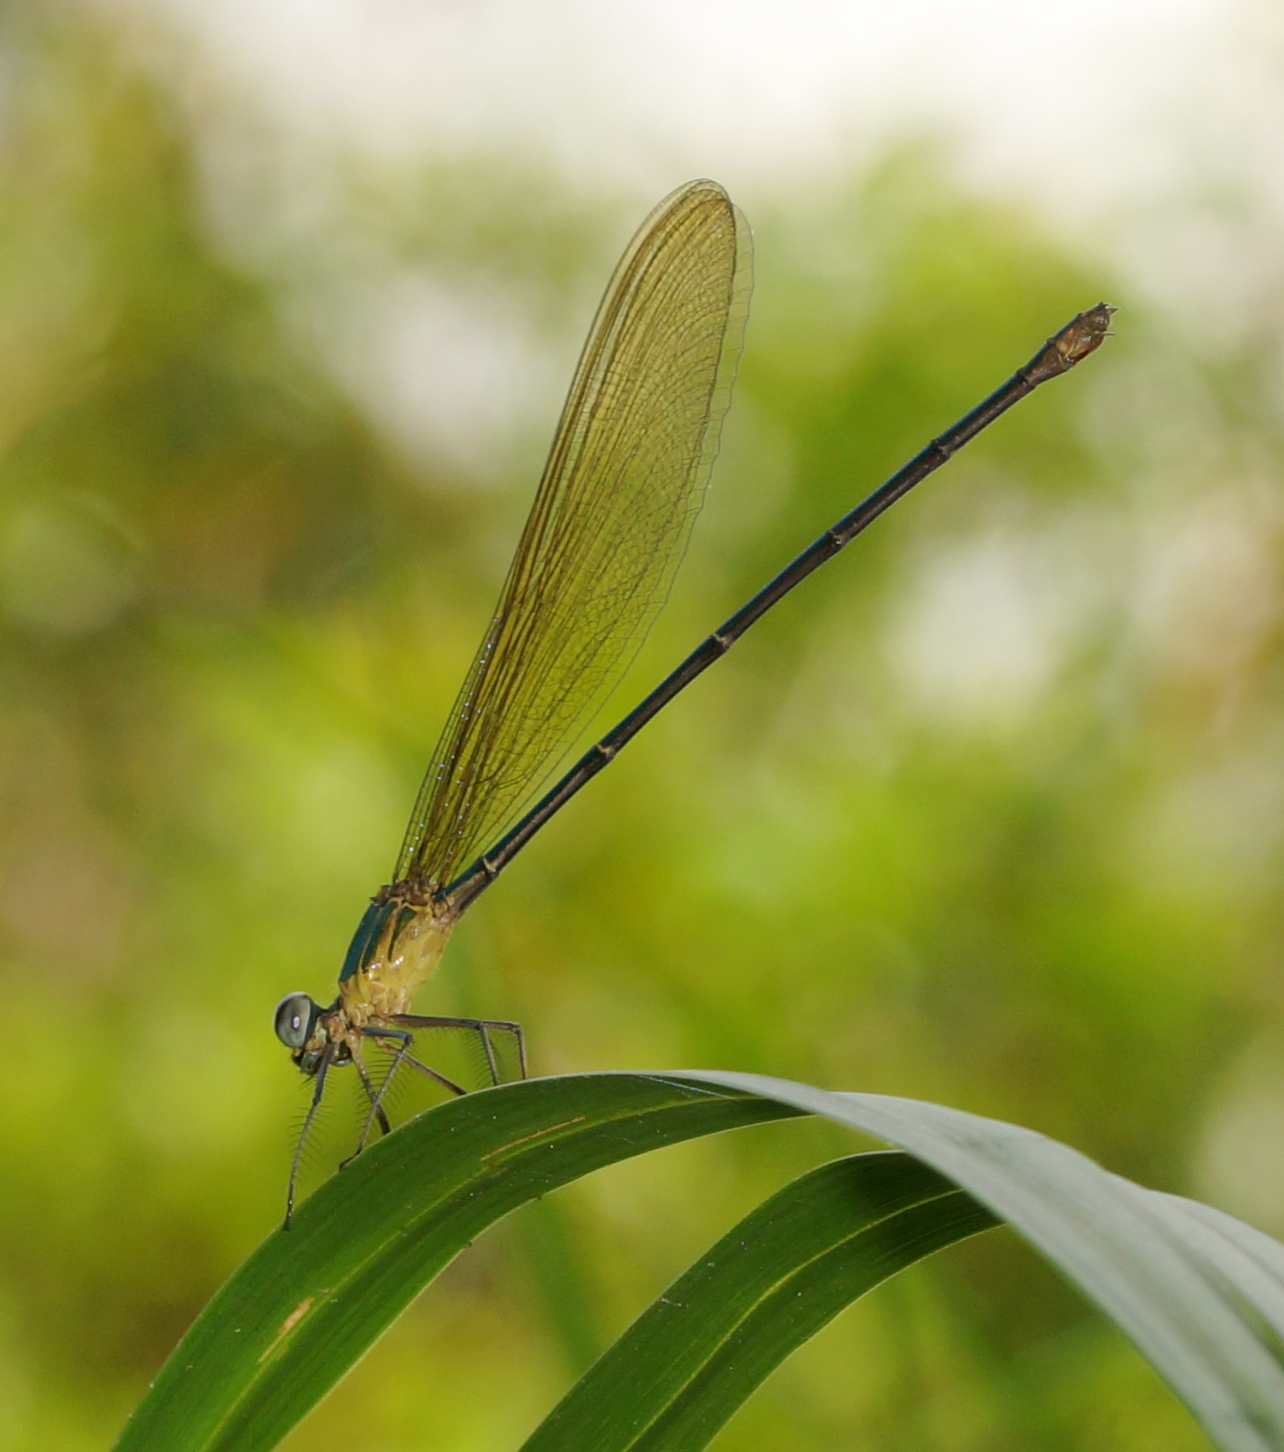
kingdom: Animalia
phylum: Arthropoda
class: Insecta
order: Odonata
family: Calopterygidae
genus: Vestalis
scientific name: Vestalis gracilis
